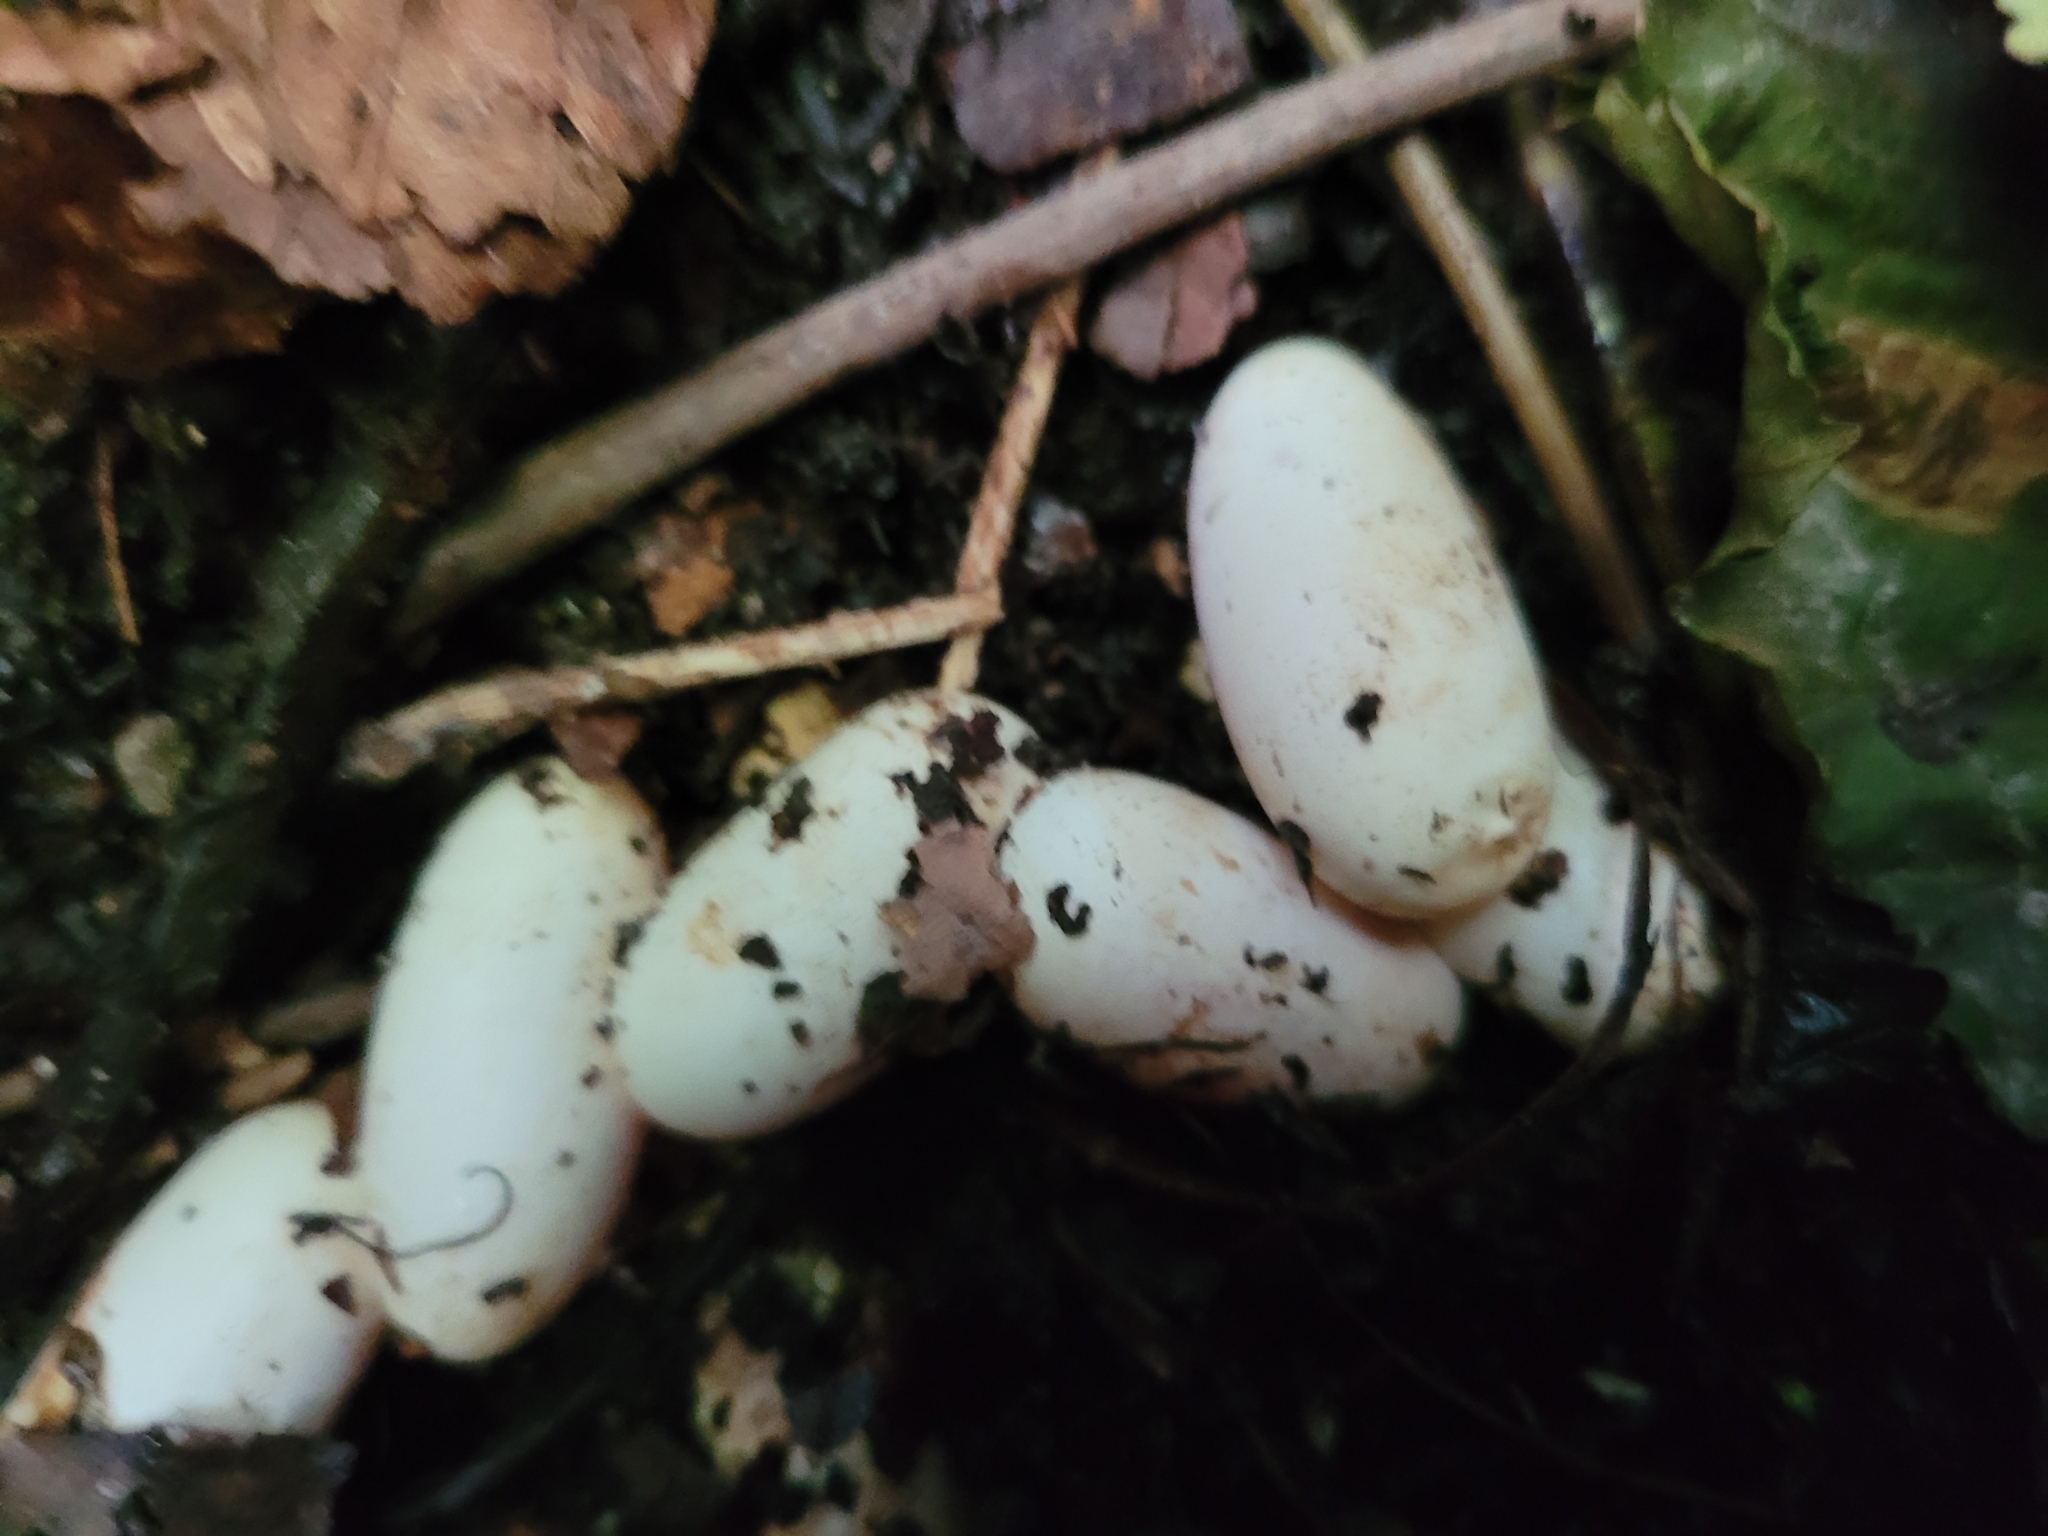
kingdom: Animalia
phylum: Chordata
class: Squamata
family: Colubridae
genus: Natrix
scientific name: Natrix natrix
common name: Grass snake
